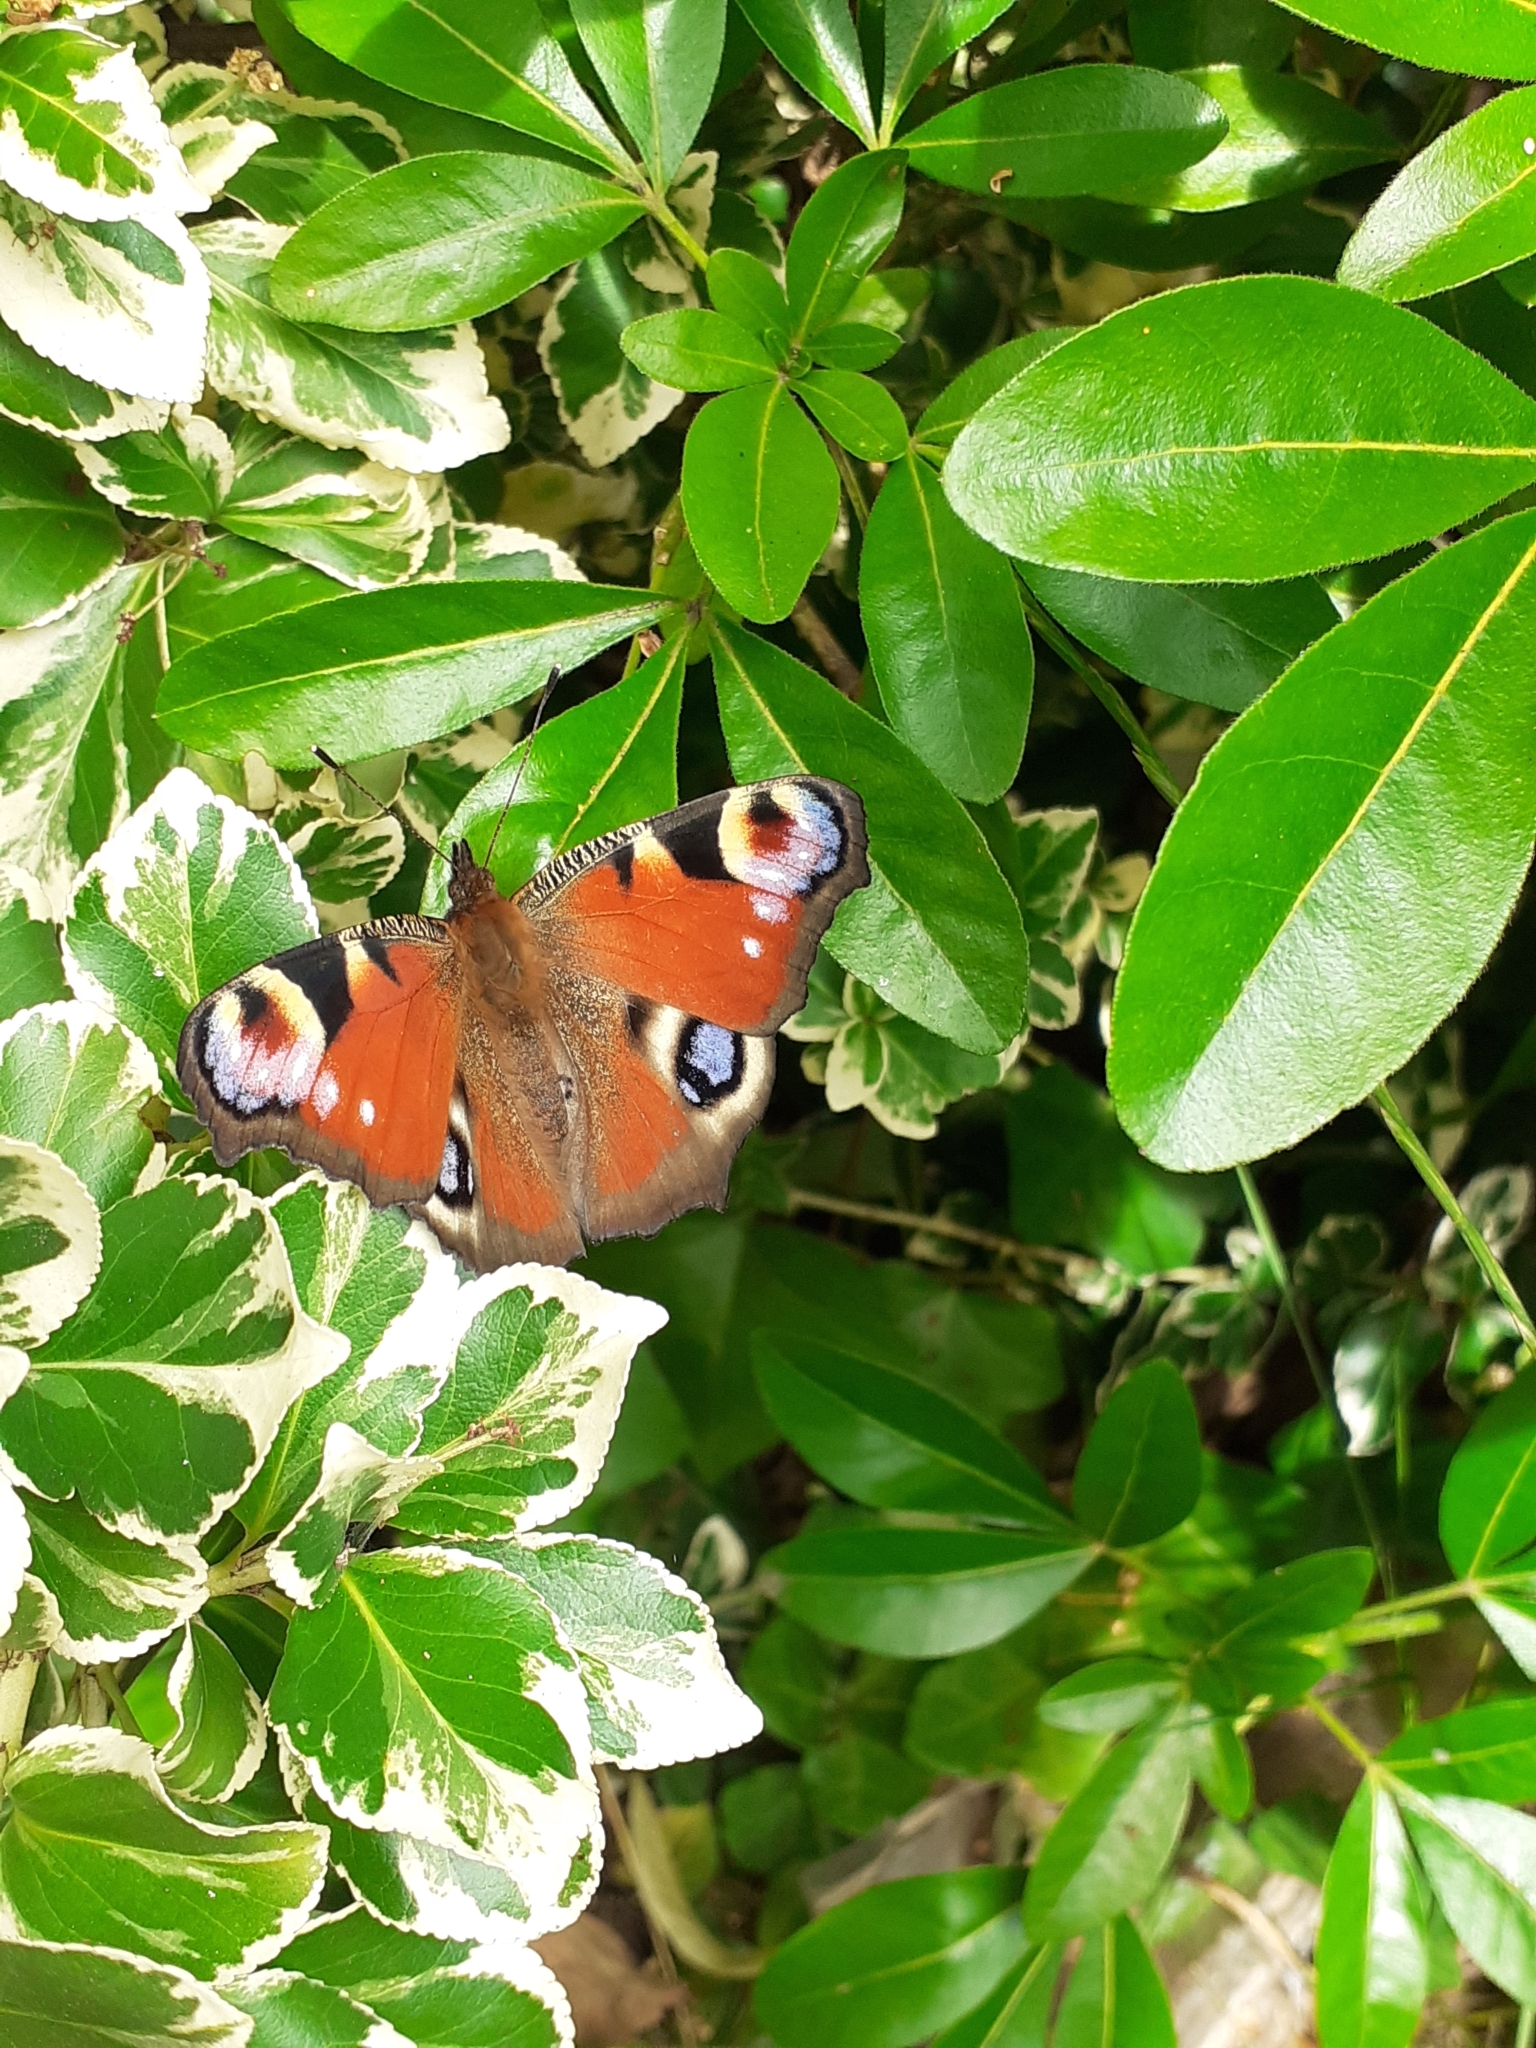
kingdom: Animalia
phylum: Arthropoda
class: Insecta
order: Lepidoptera
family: Nymphalidae
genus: Aglais
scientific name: Aglais io
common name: Peacock
